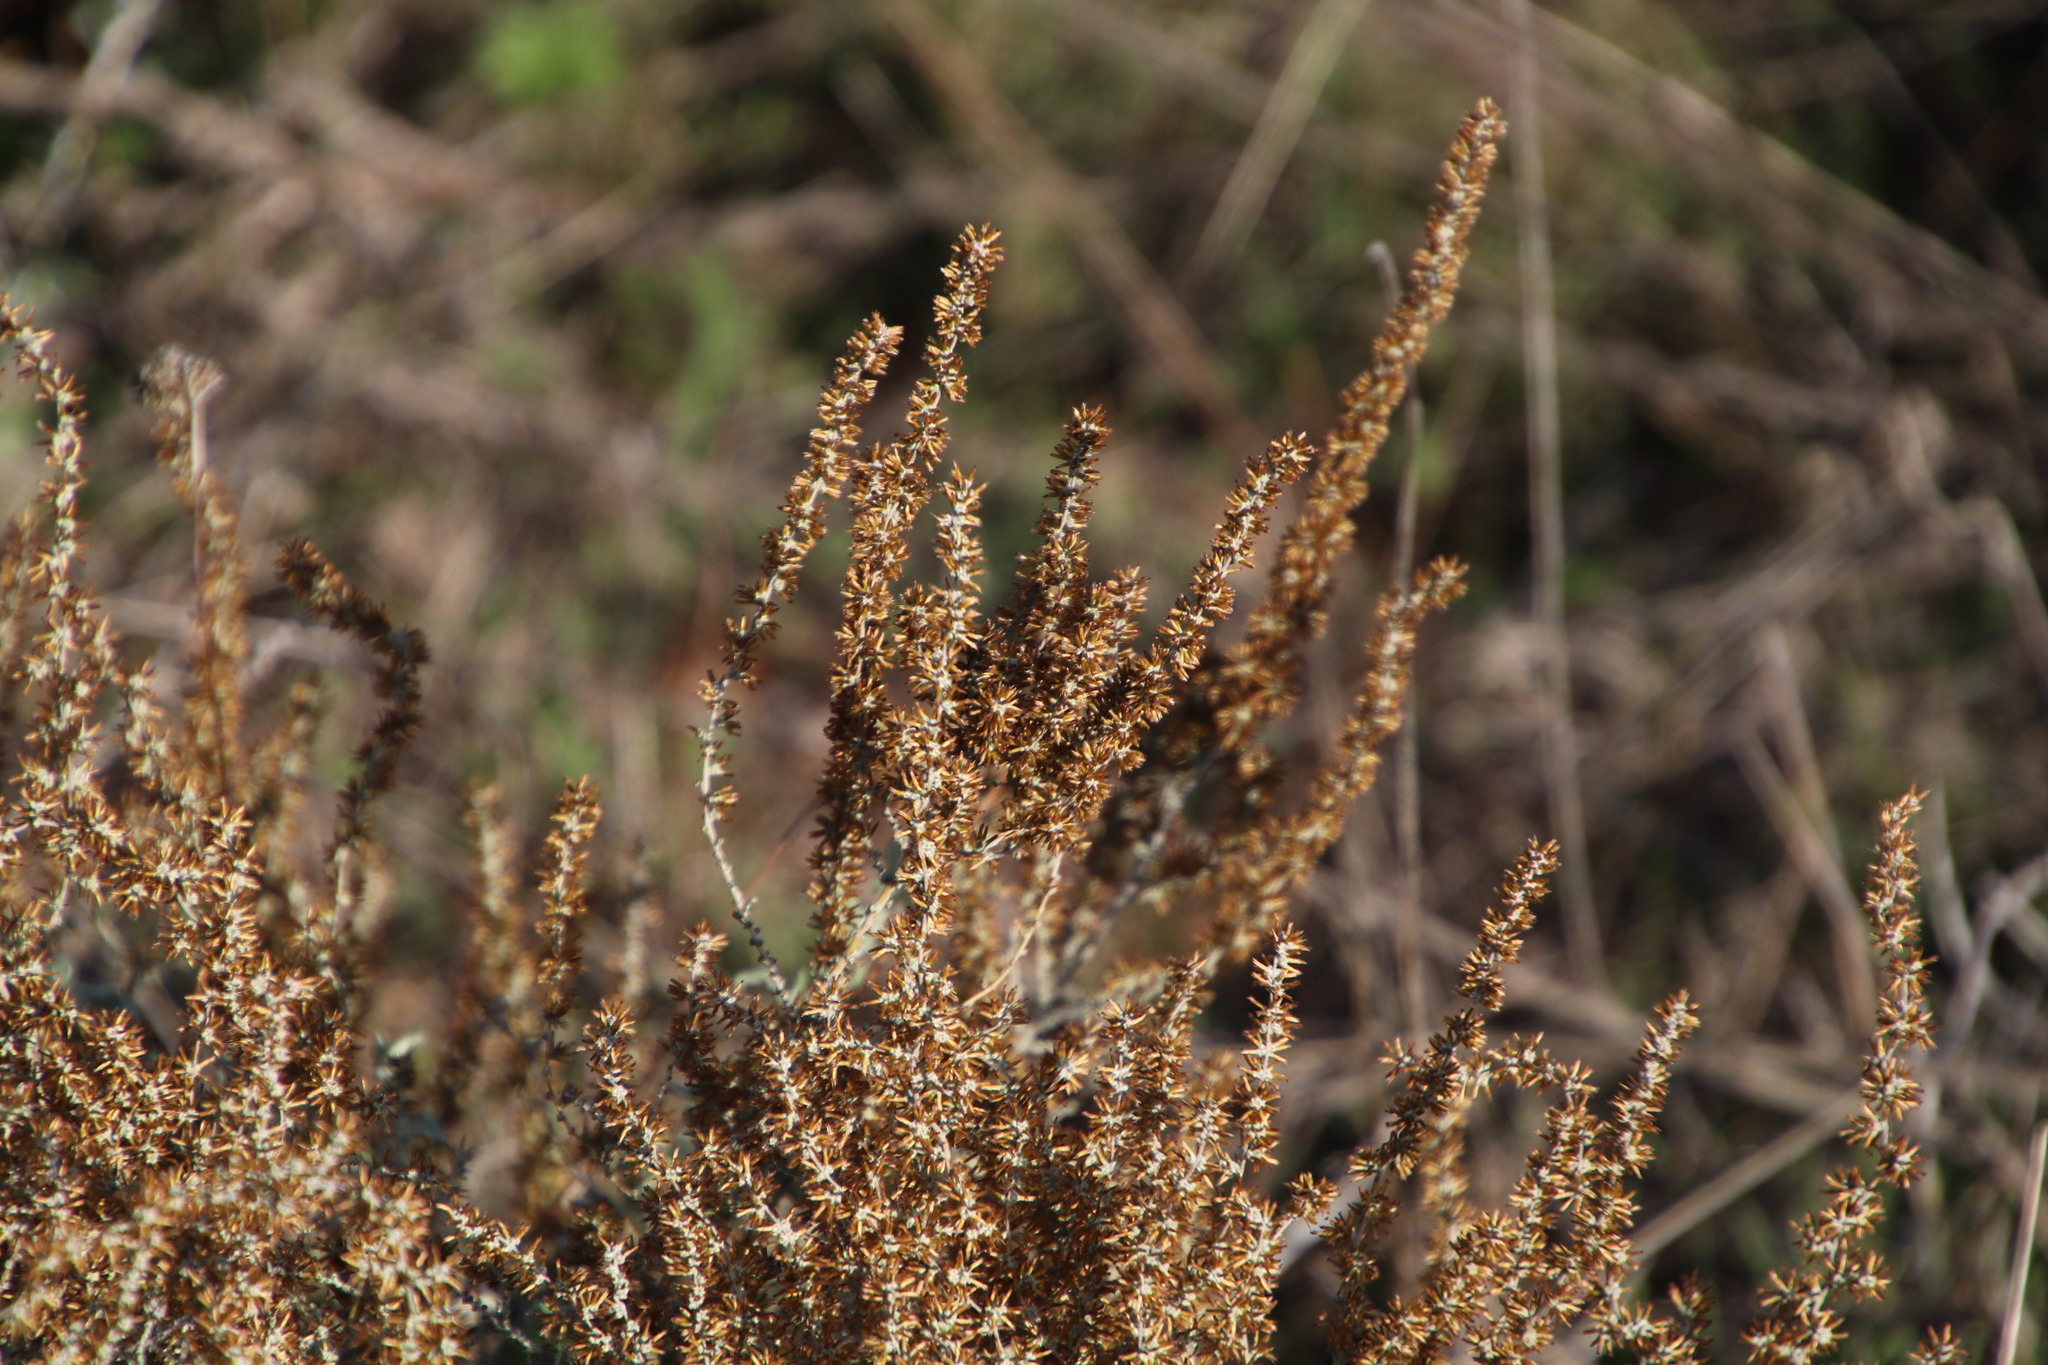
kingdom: Plantae
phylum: Tracheophyta
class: Magnoliopsida
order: Asterales
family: Asteraceae
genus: Seriphium
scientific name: Seriphium plumosum
